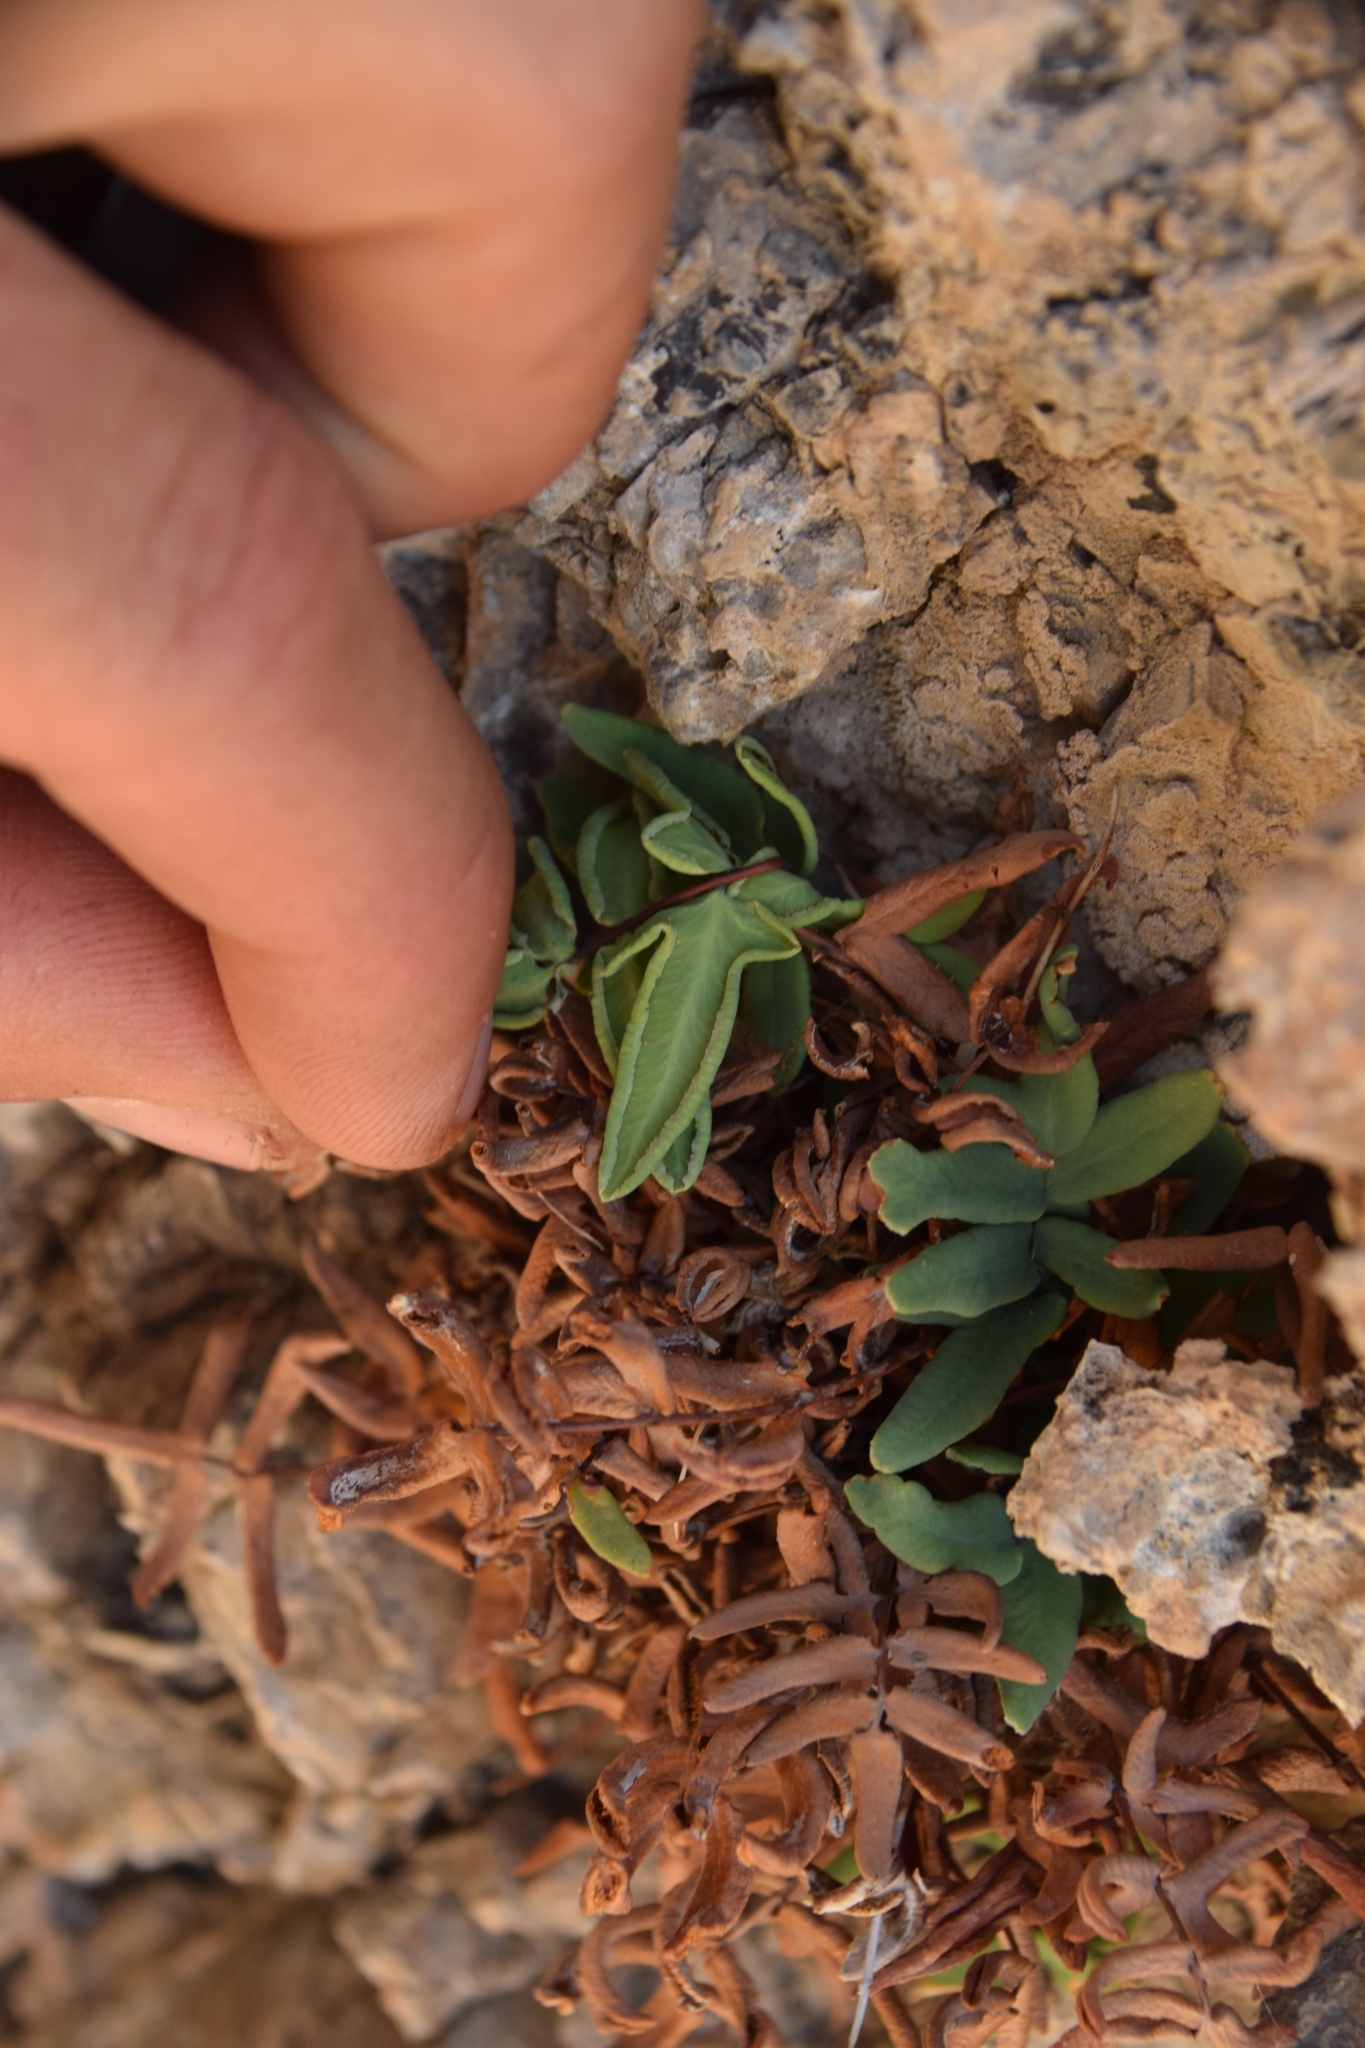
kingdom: Plantae
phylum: Tracheophyta
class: Polypodiopsida
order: Polypodiales
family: Pteridaceae
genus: Pellaea
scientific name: Pellaea glabella
